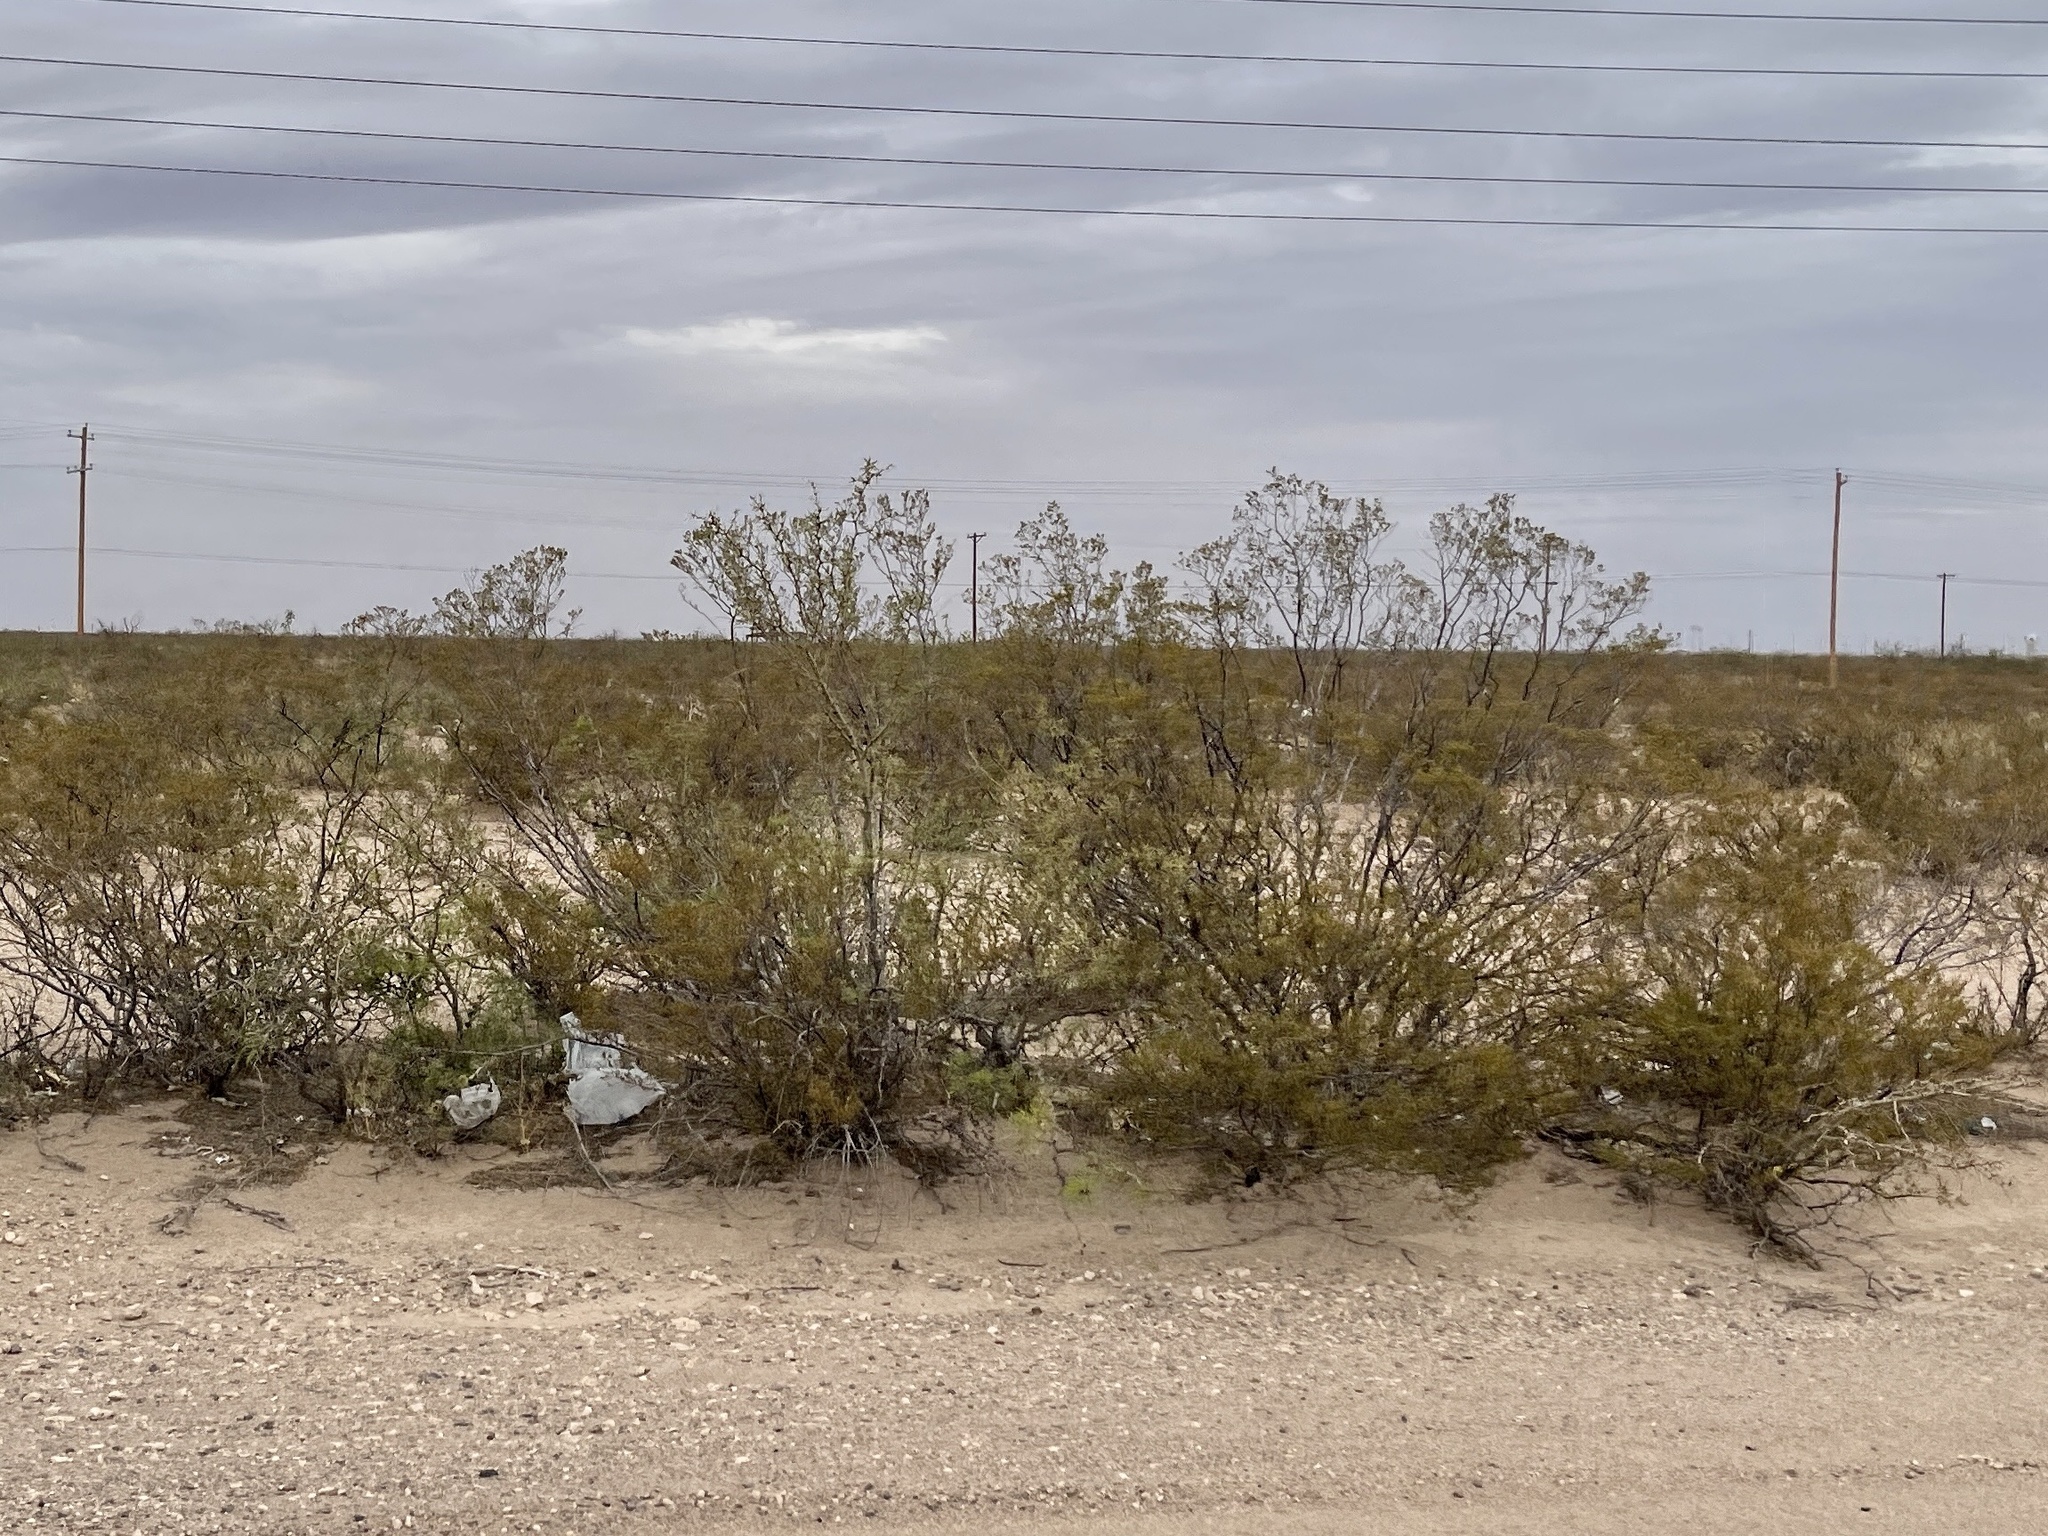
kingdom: Plantae
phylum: Tracheophyta
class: Magnoliopsida
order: Zygophyllales
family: Zygophyllaceae
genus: Larrea
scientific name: Larrea tridentata
